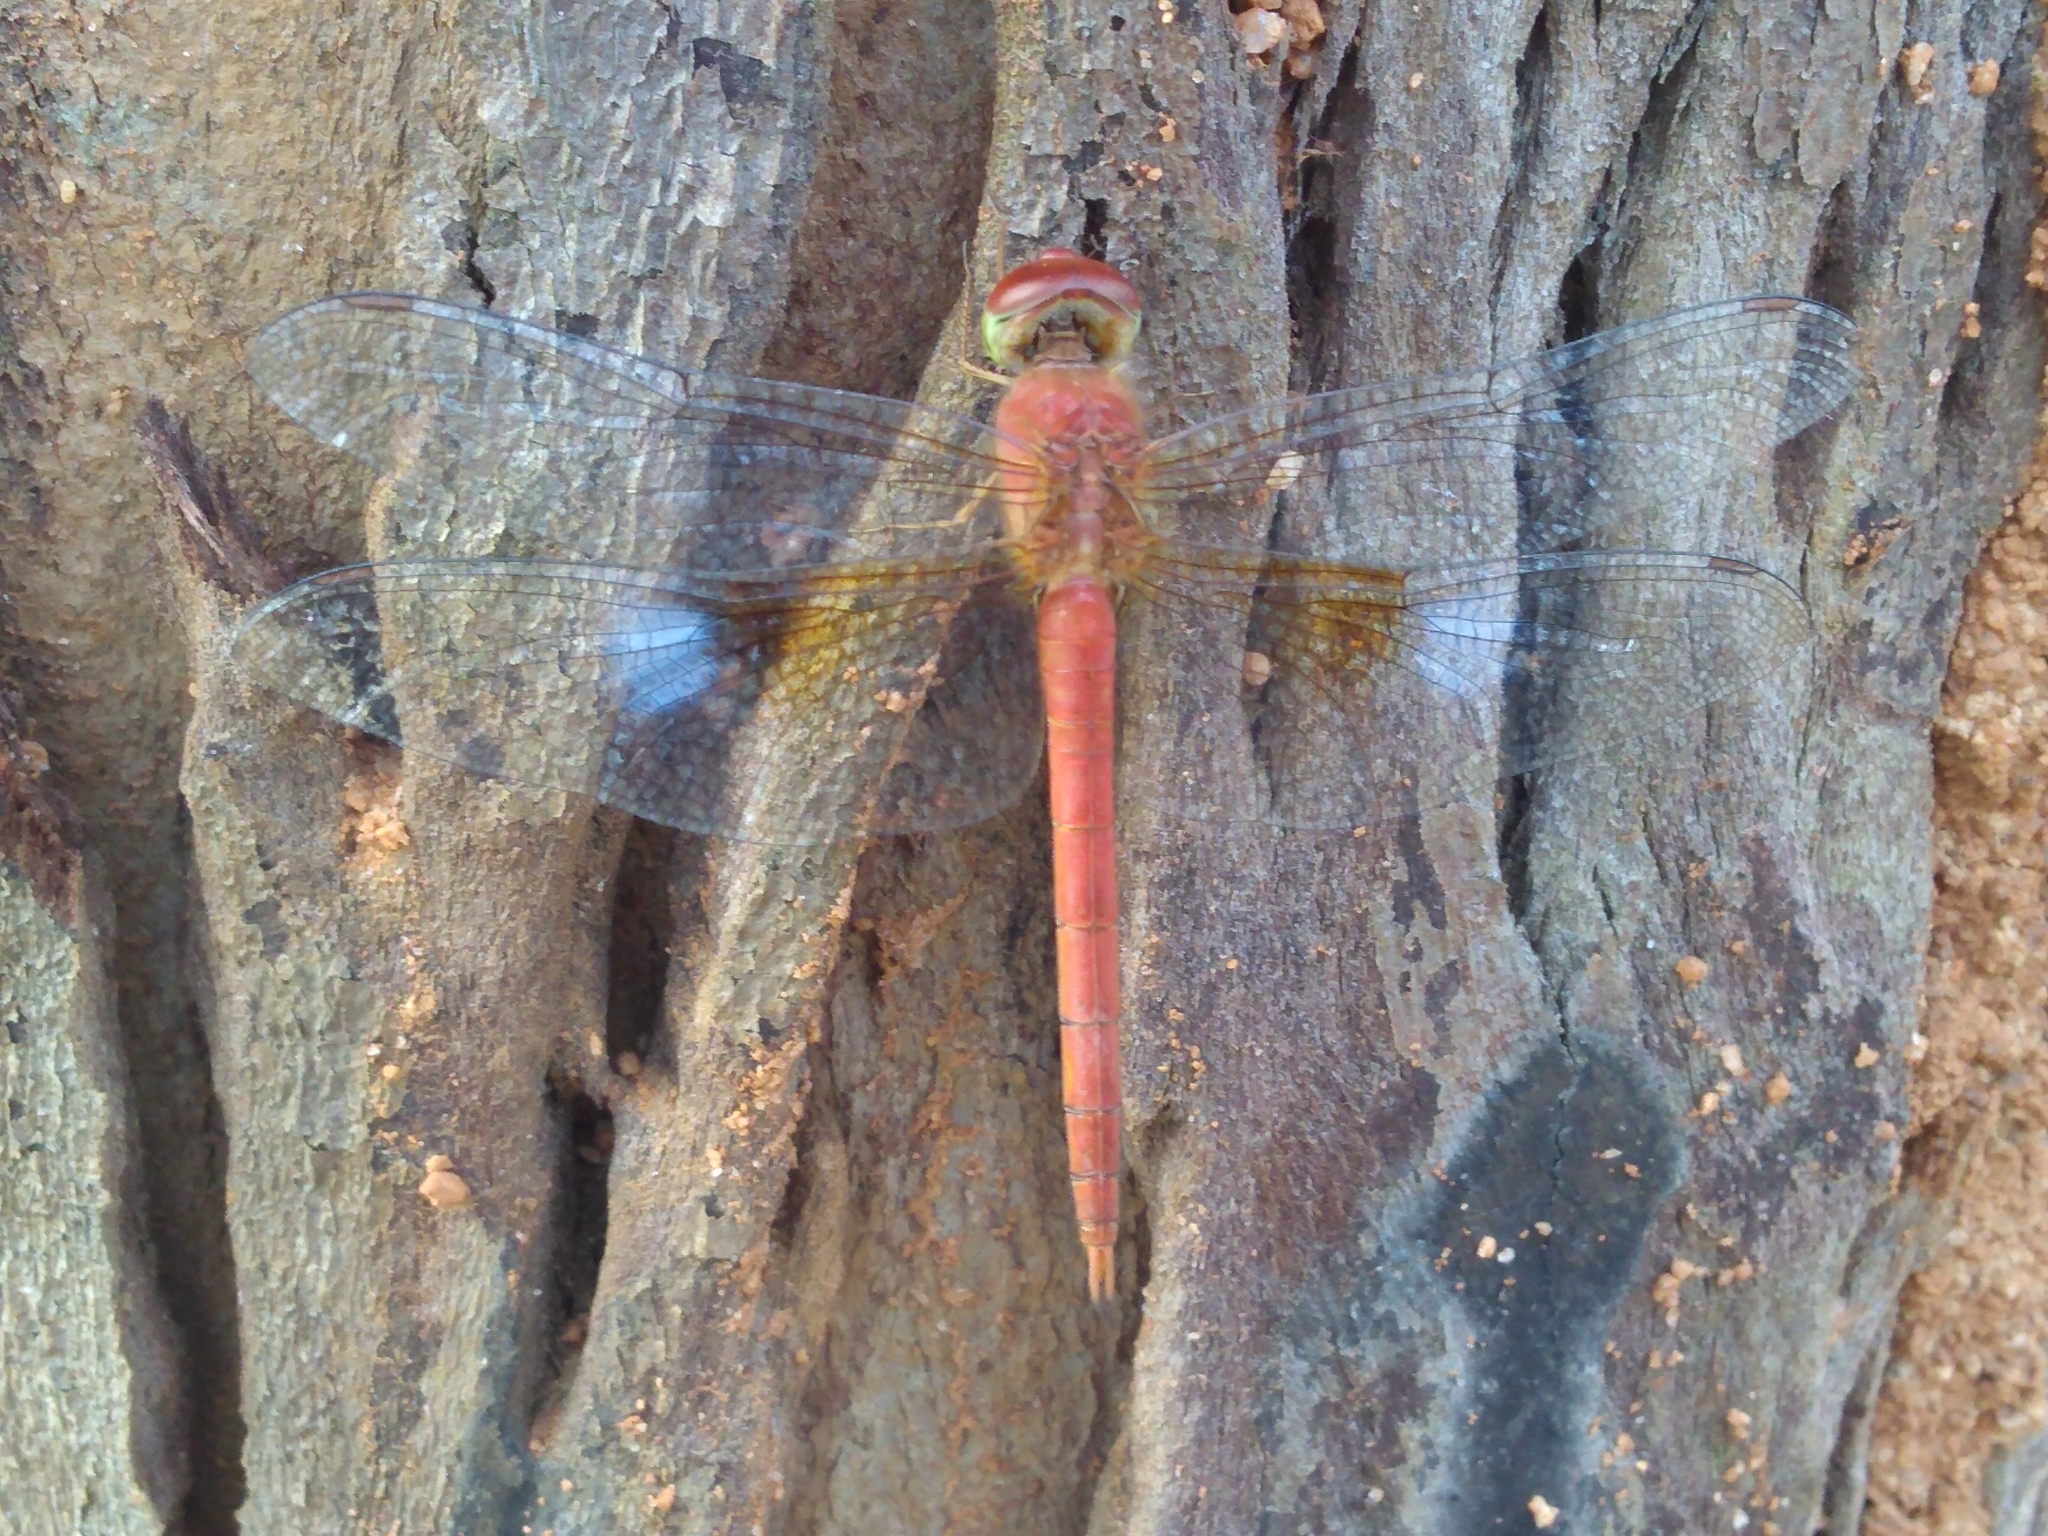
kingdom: Animalia
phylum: Arthropoda
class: Insecta
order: Odonata
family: Libellulidae
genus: Tholymis
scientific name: Tholymis tillarga
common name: Coral-tailed cloud wing
